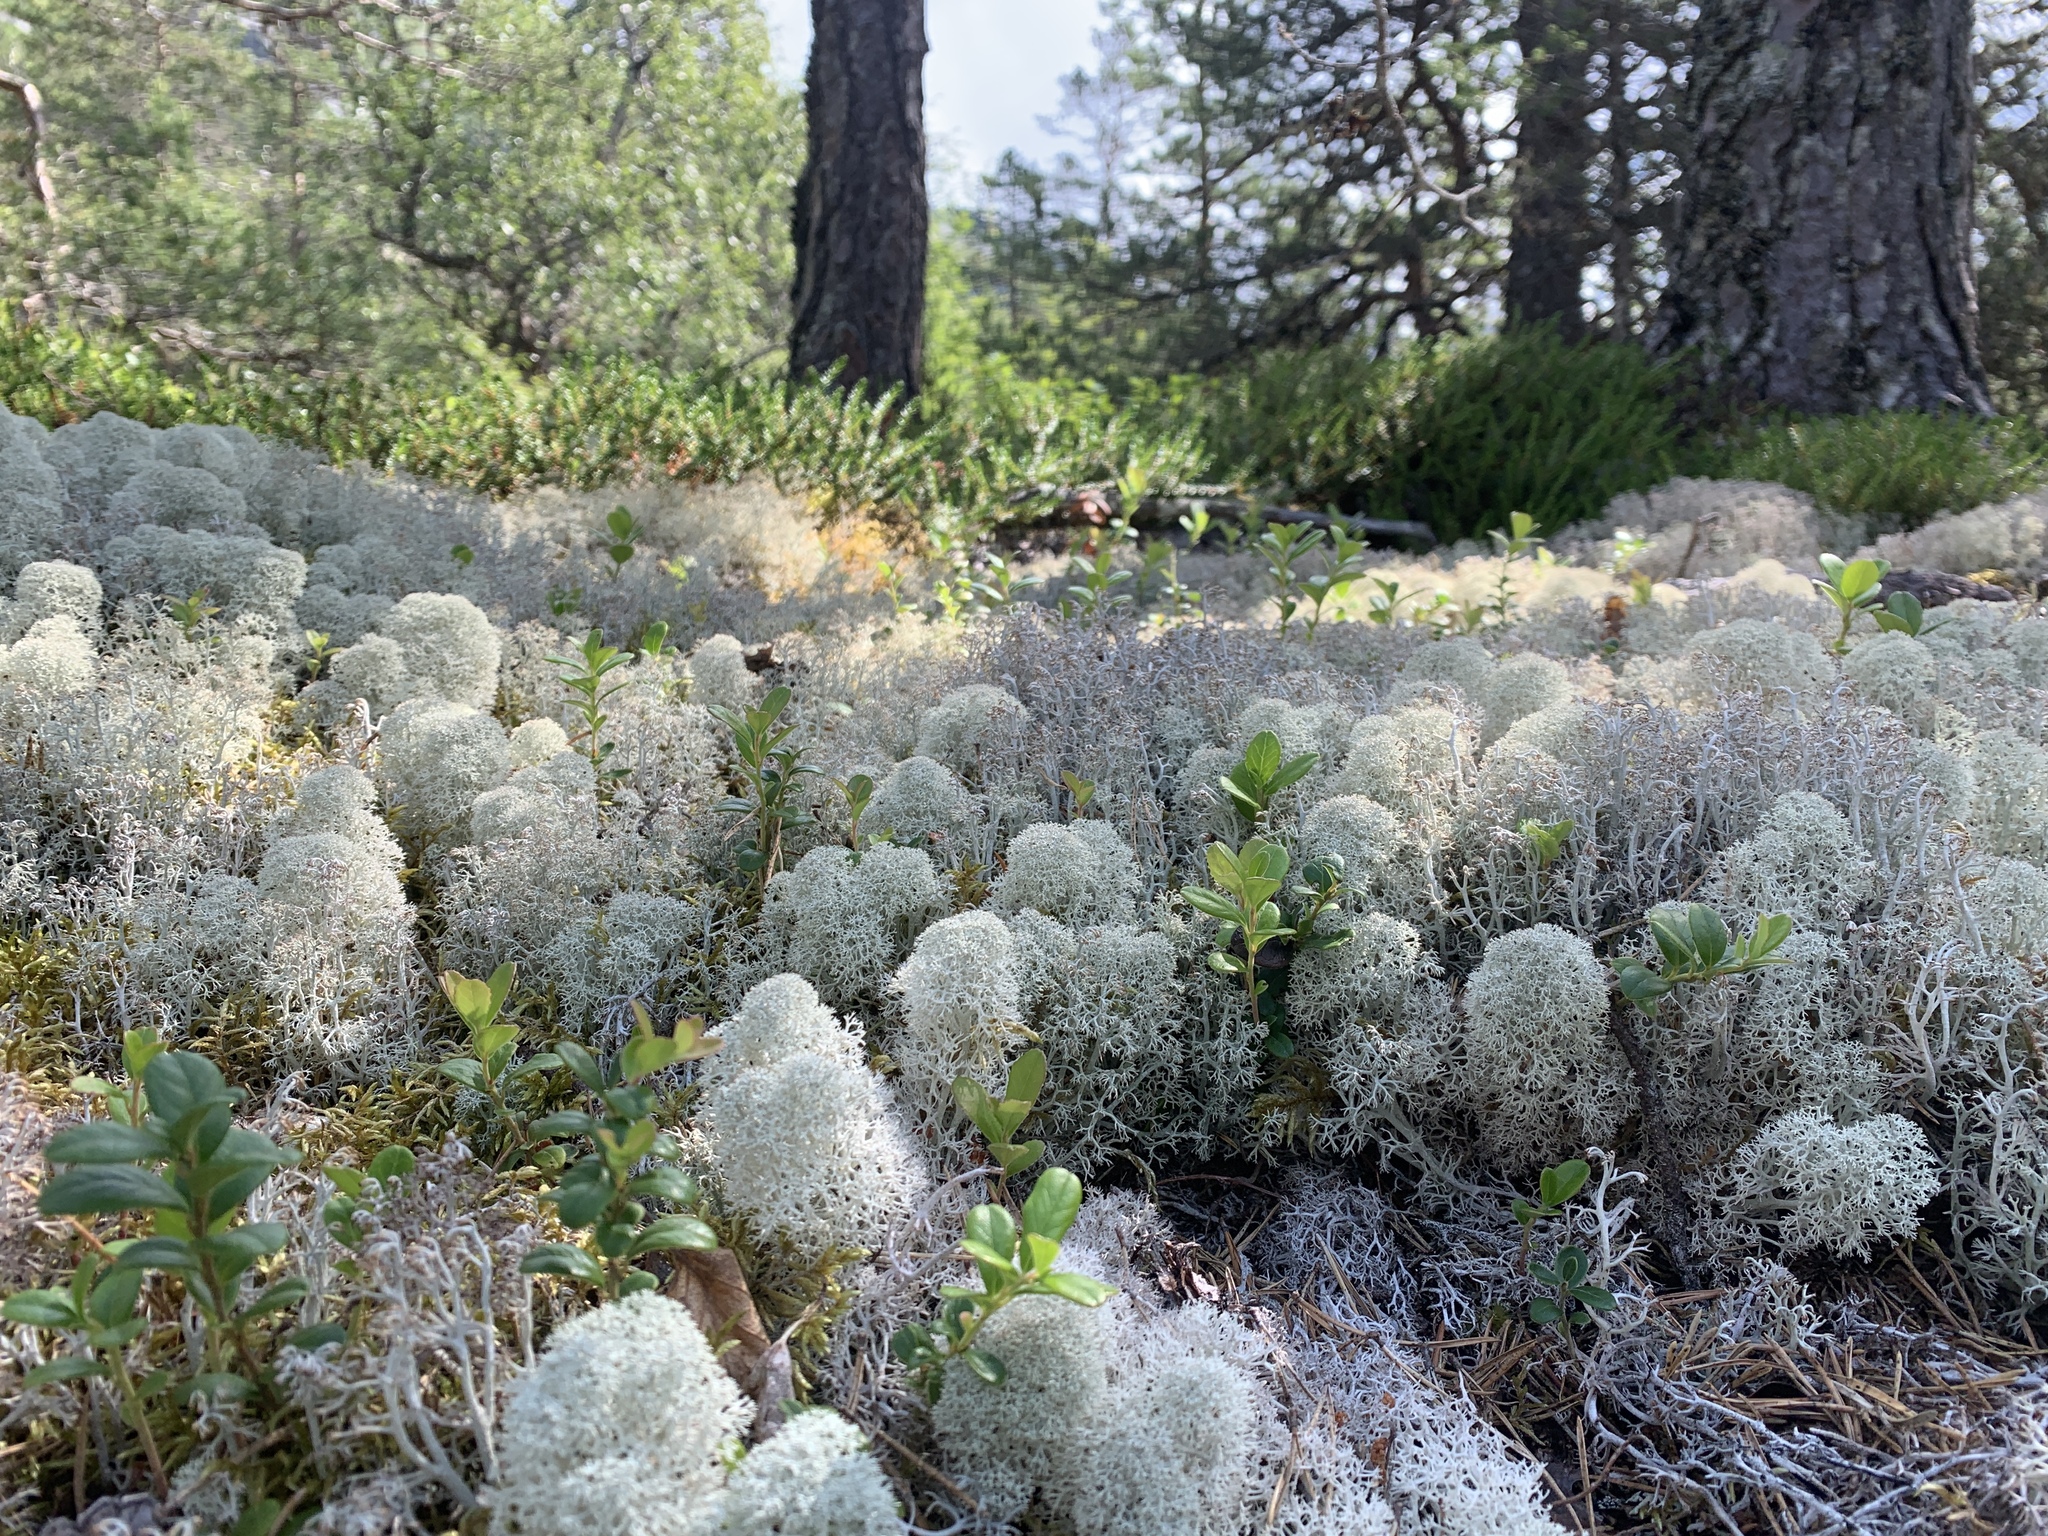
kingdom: Fungi
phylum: Ascomycota
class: Lecanoromycetes
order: Lecanorales
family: Cladoniaceae
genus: Cladonia
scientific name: Cladonia stellaris
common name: Star-tipped reindeer lichen
